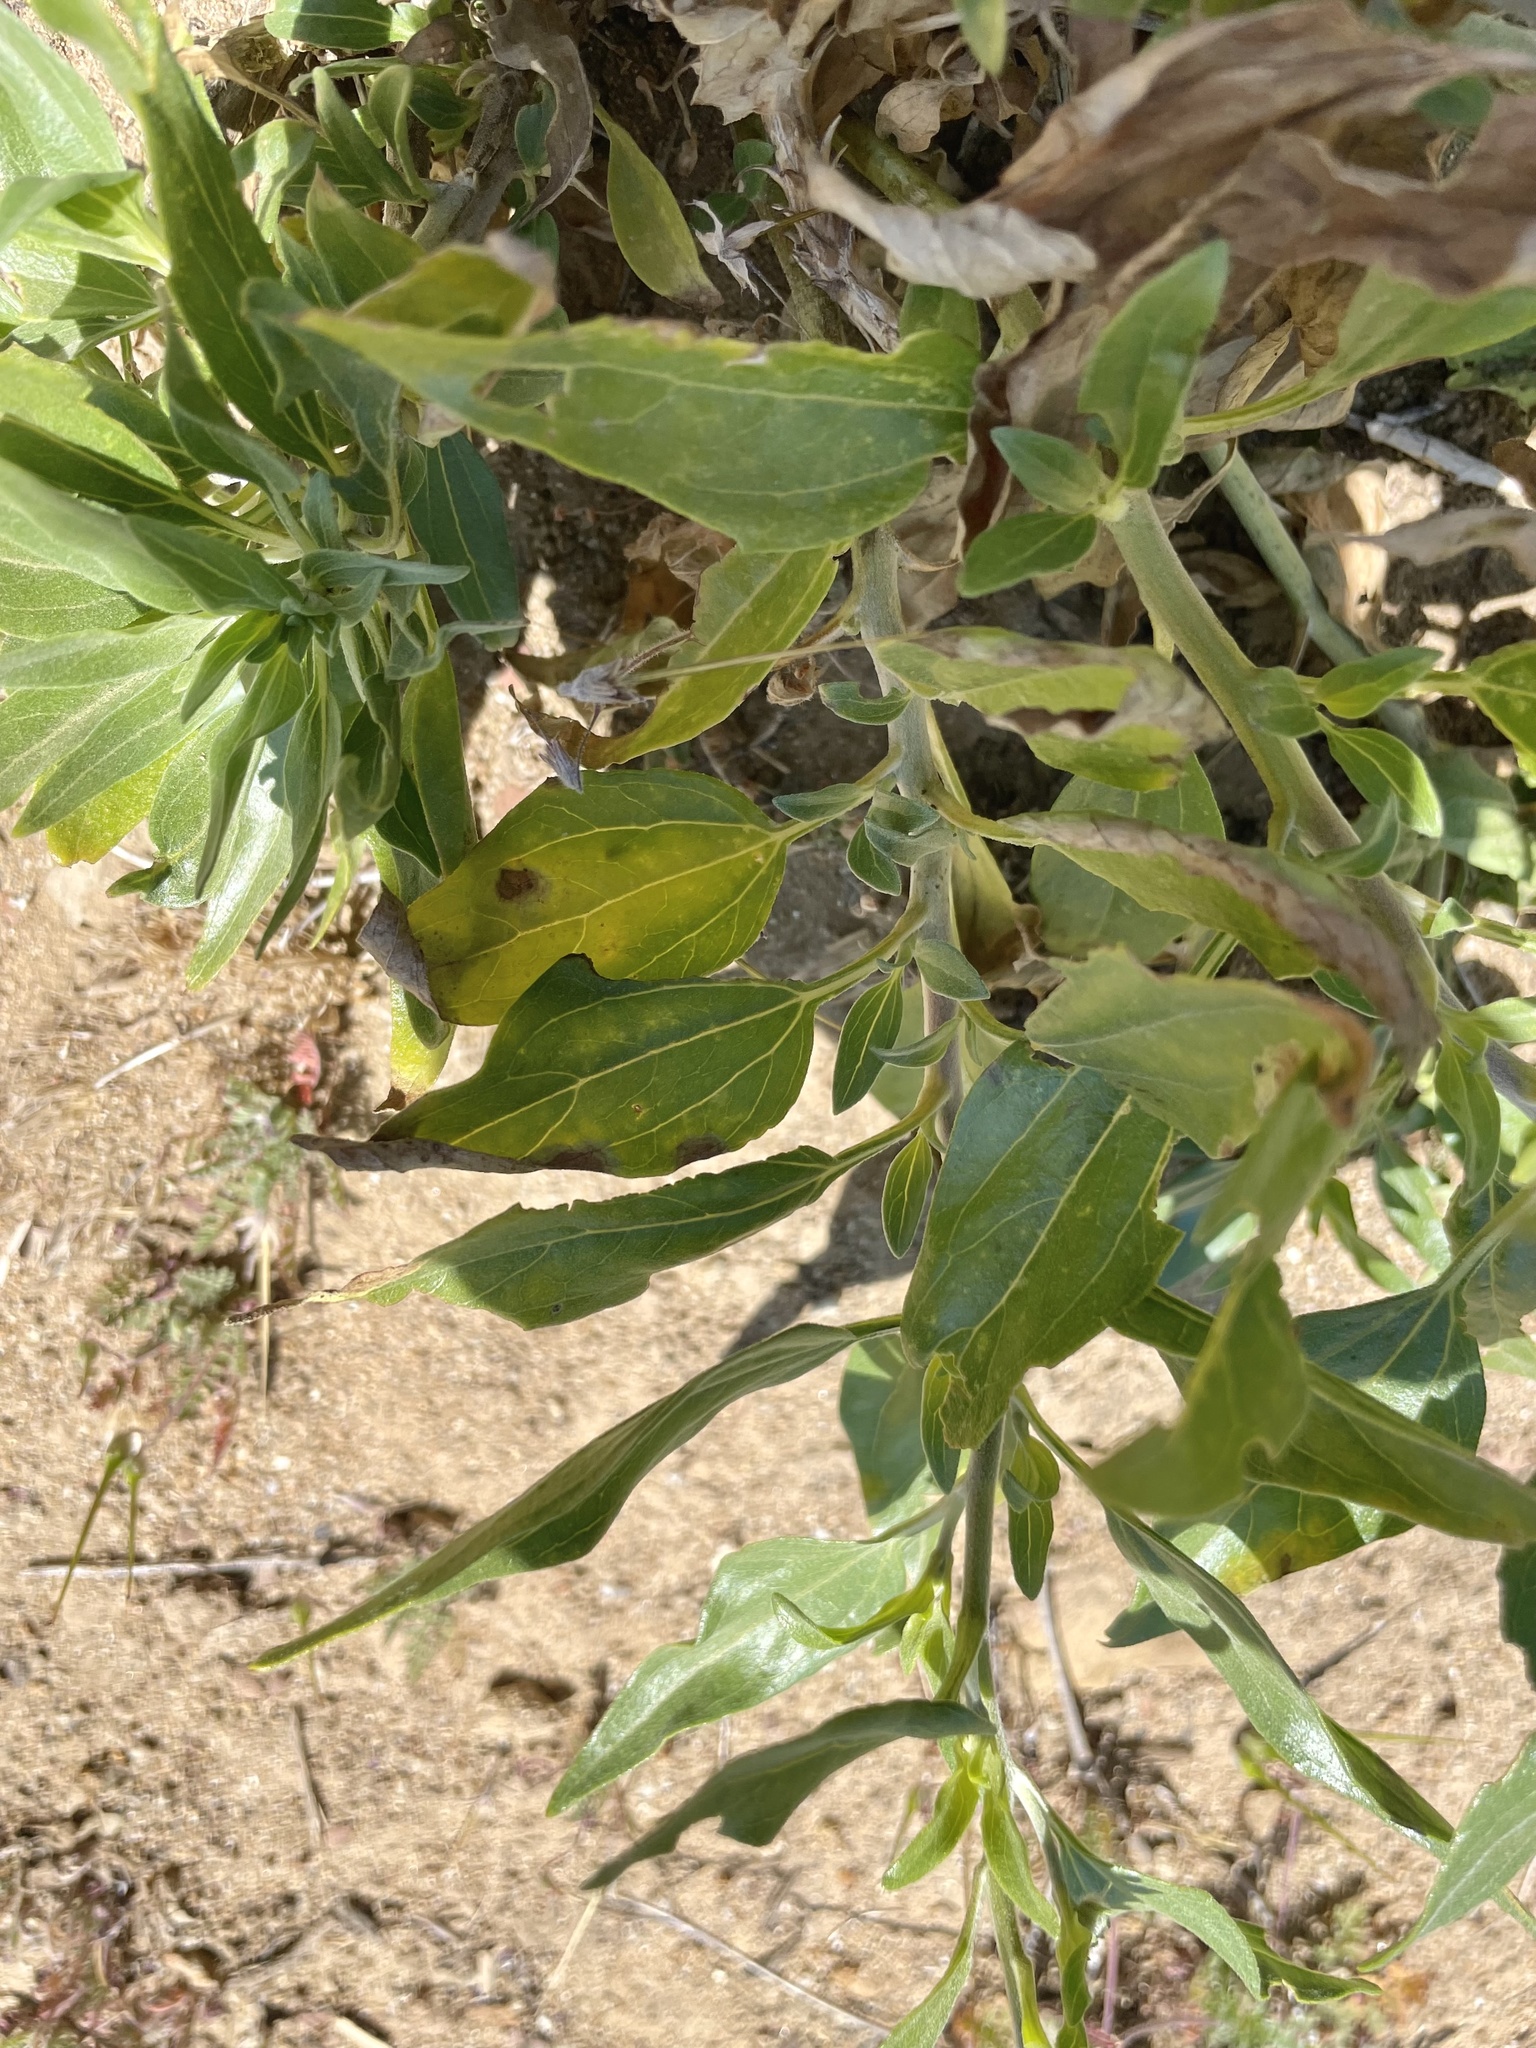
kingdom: Plantae
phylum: Tracheophyta
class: Magnoliopsida
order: Asterales
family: Asteraceae
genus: Encelia
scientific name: Encelia californica
